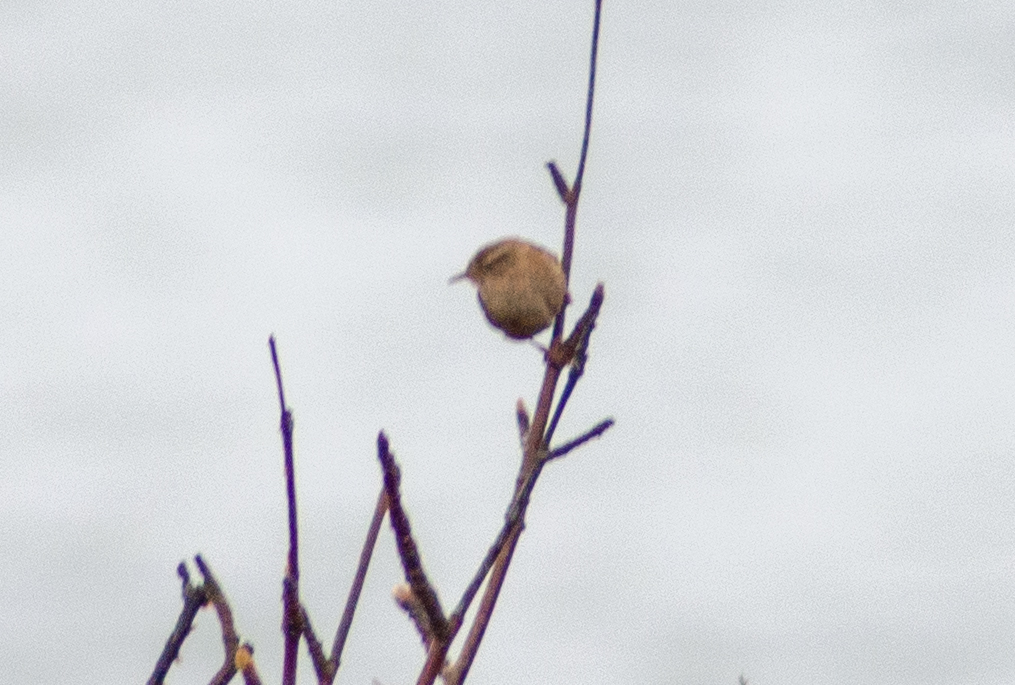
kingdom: Animalia
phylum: Chordata
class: Aves
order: Passeriformes
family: Troglodytidae
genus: Troglodytes
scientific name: Troglodytes troglodytes
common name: Eurasian wren
